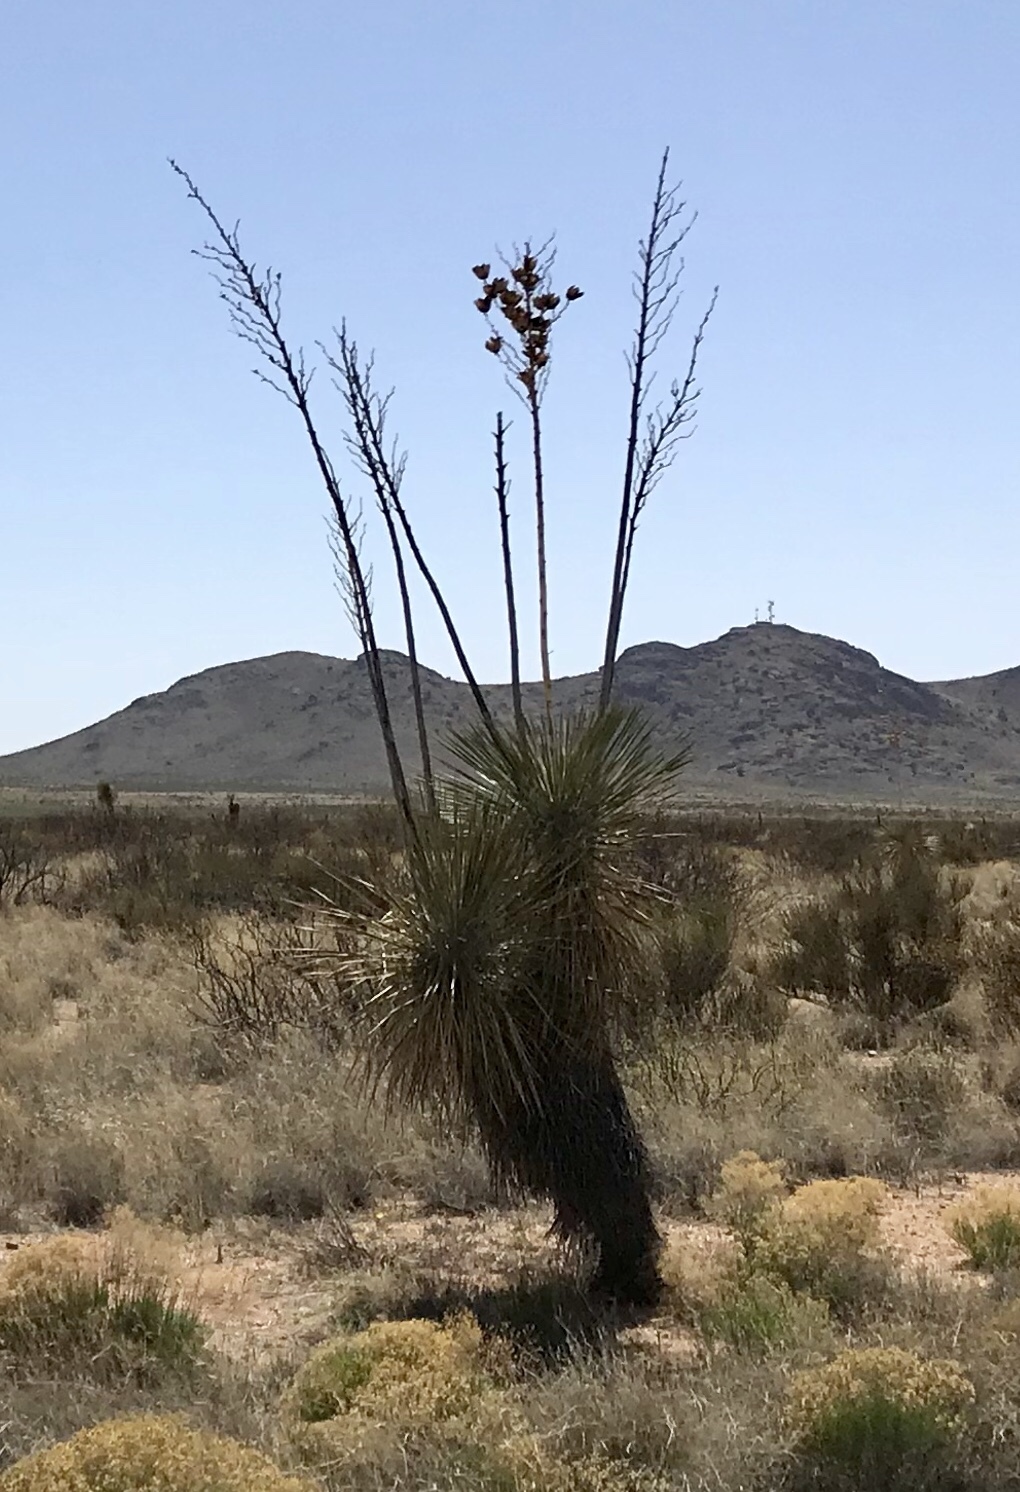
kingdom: Plantae
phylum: Tracheophyta
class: Liliopsida
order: Asparagales
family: Asparagaceae
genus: Yucca
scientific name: Yucca elata
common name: Palmella
